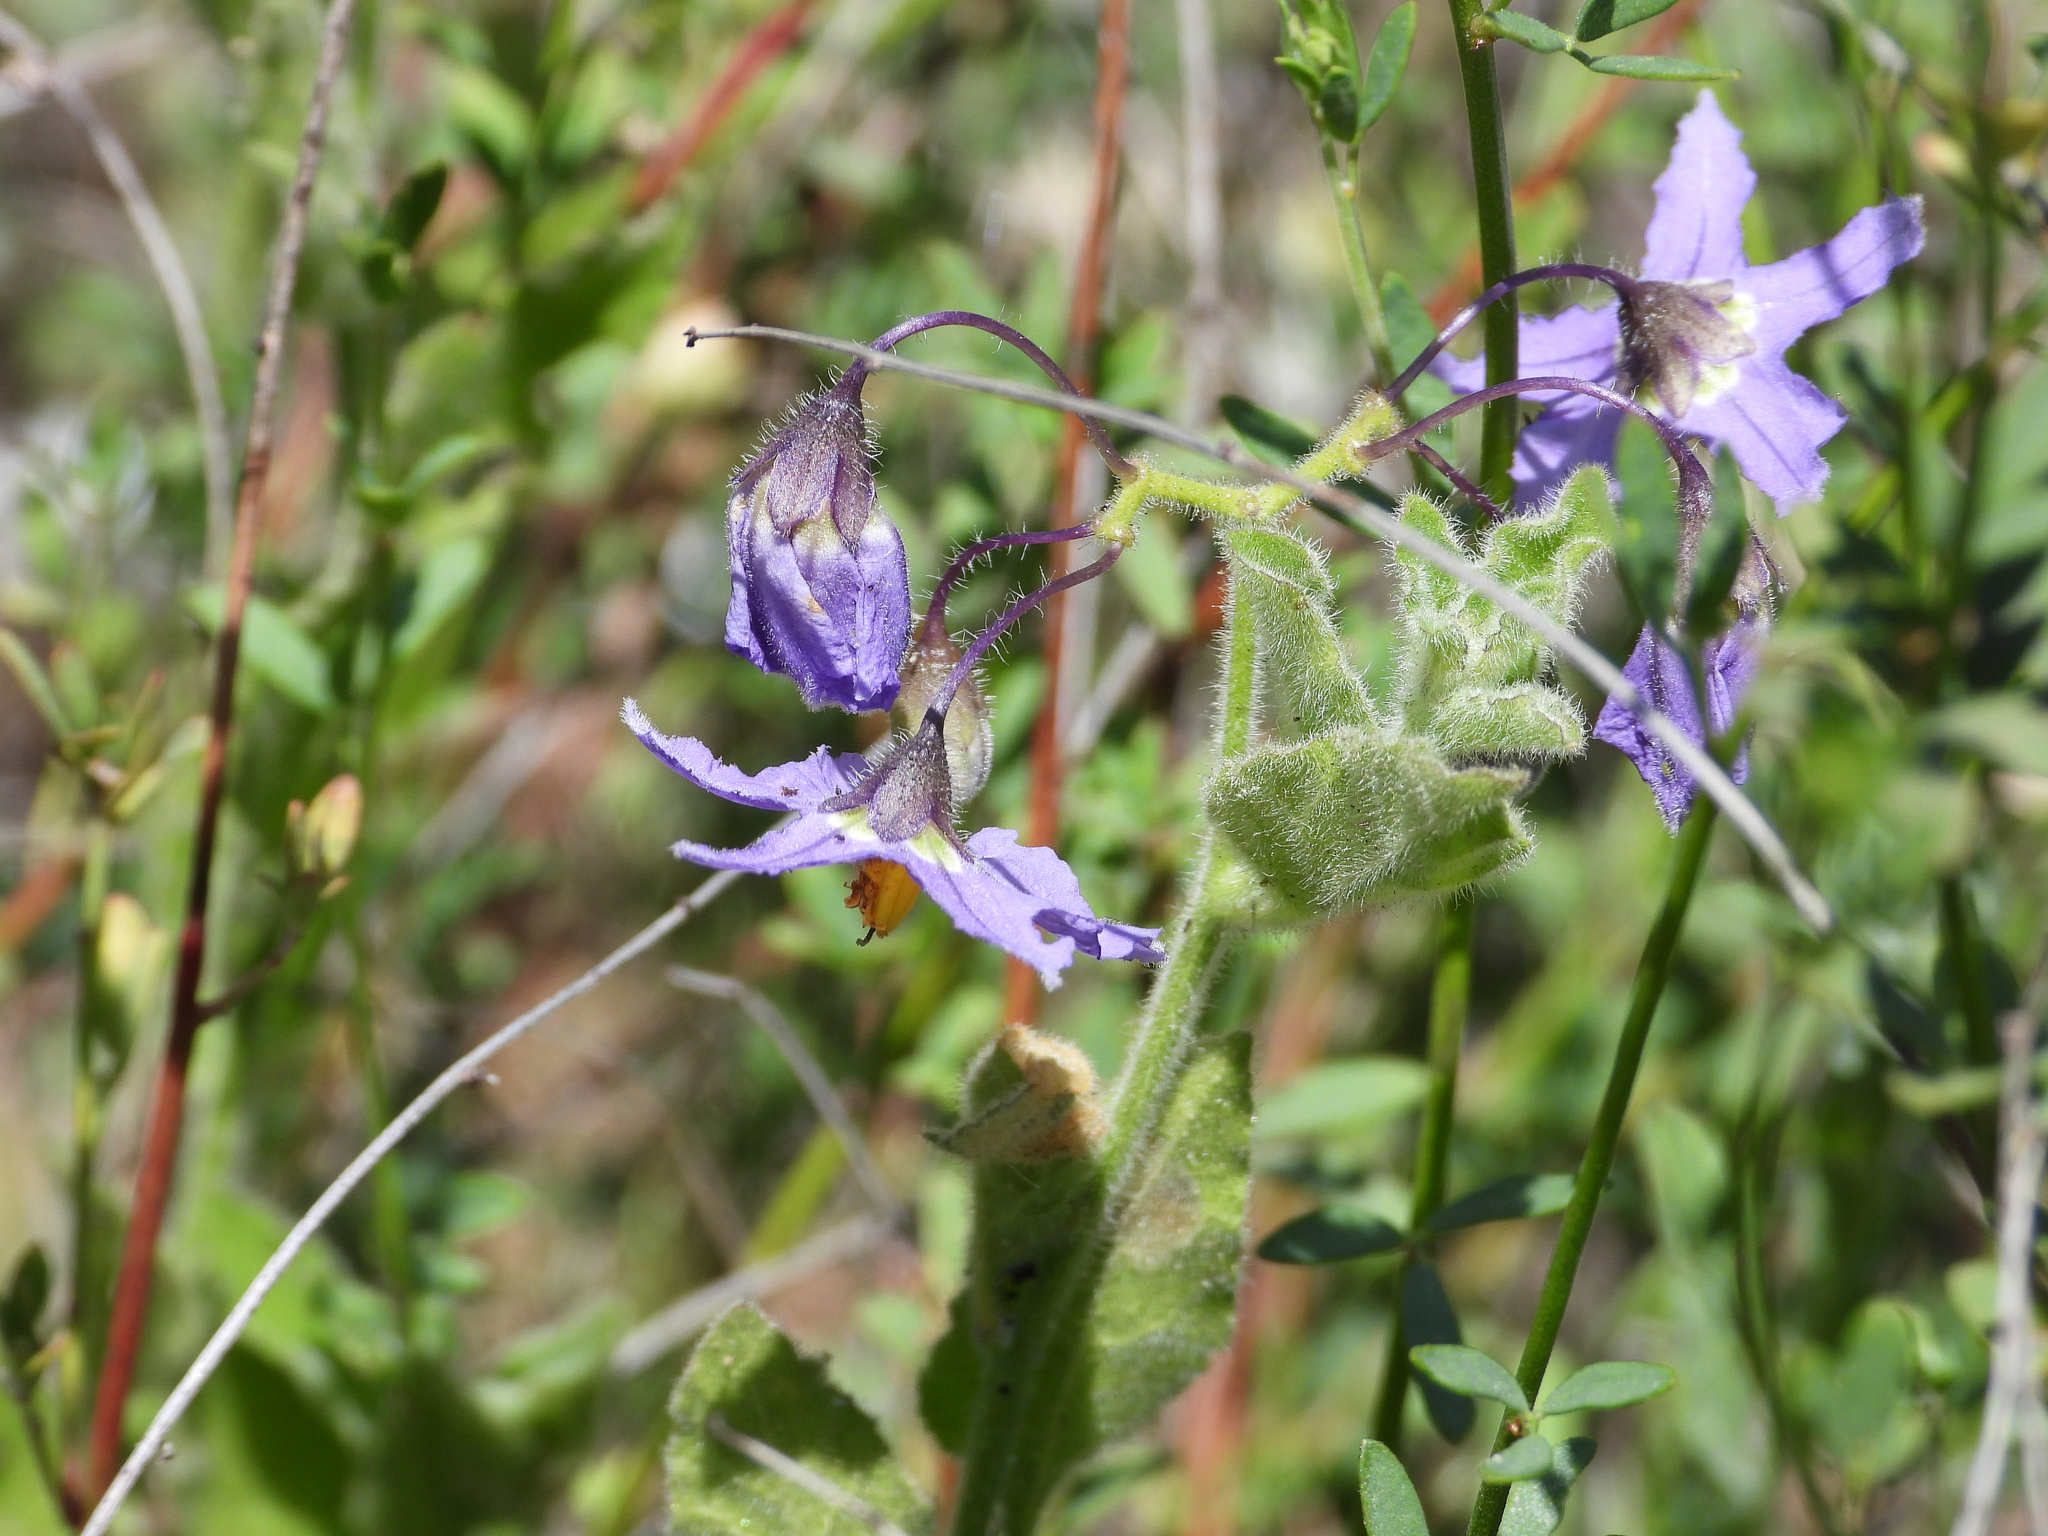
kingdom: Plantae
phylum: Tracheophyta
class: Magnoliopsida
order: Solanales
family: Solanaceae
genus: Solanum
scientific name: Solanum umbelliferum
